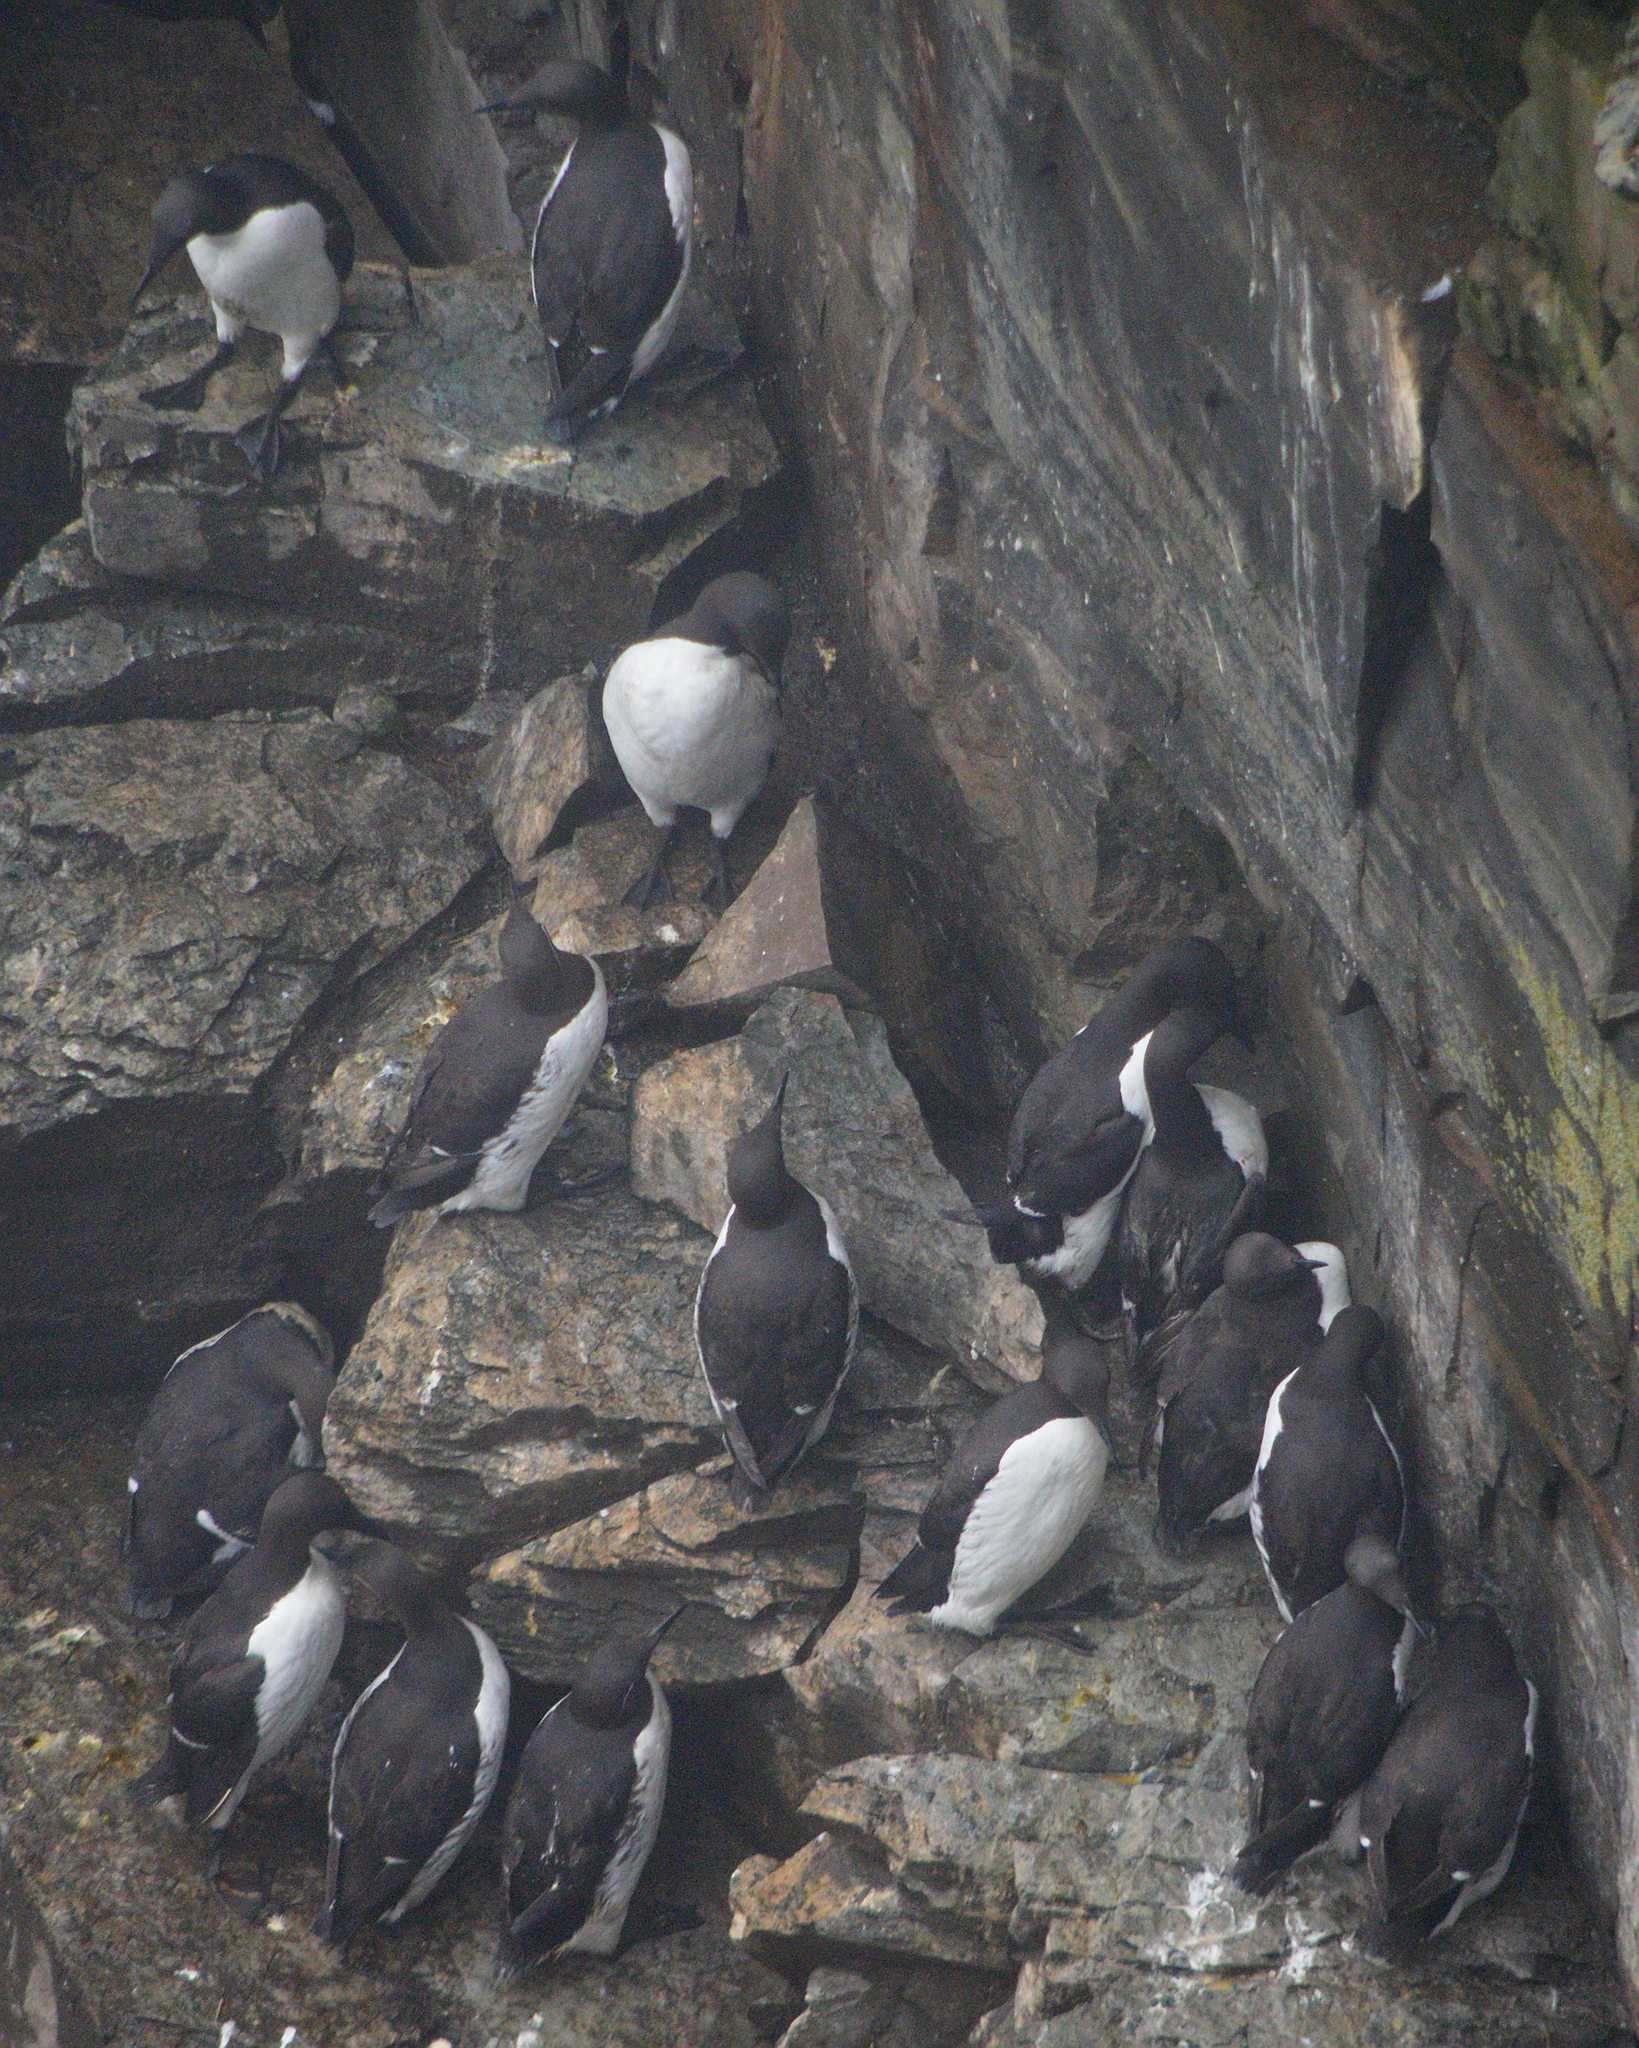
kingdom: Animalia
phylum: Chordata
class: Aves
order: Charadriiformes
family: Alcidae
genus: Uria
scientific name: Uria aalge
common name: Common murre
